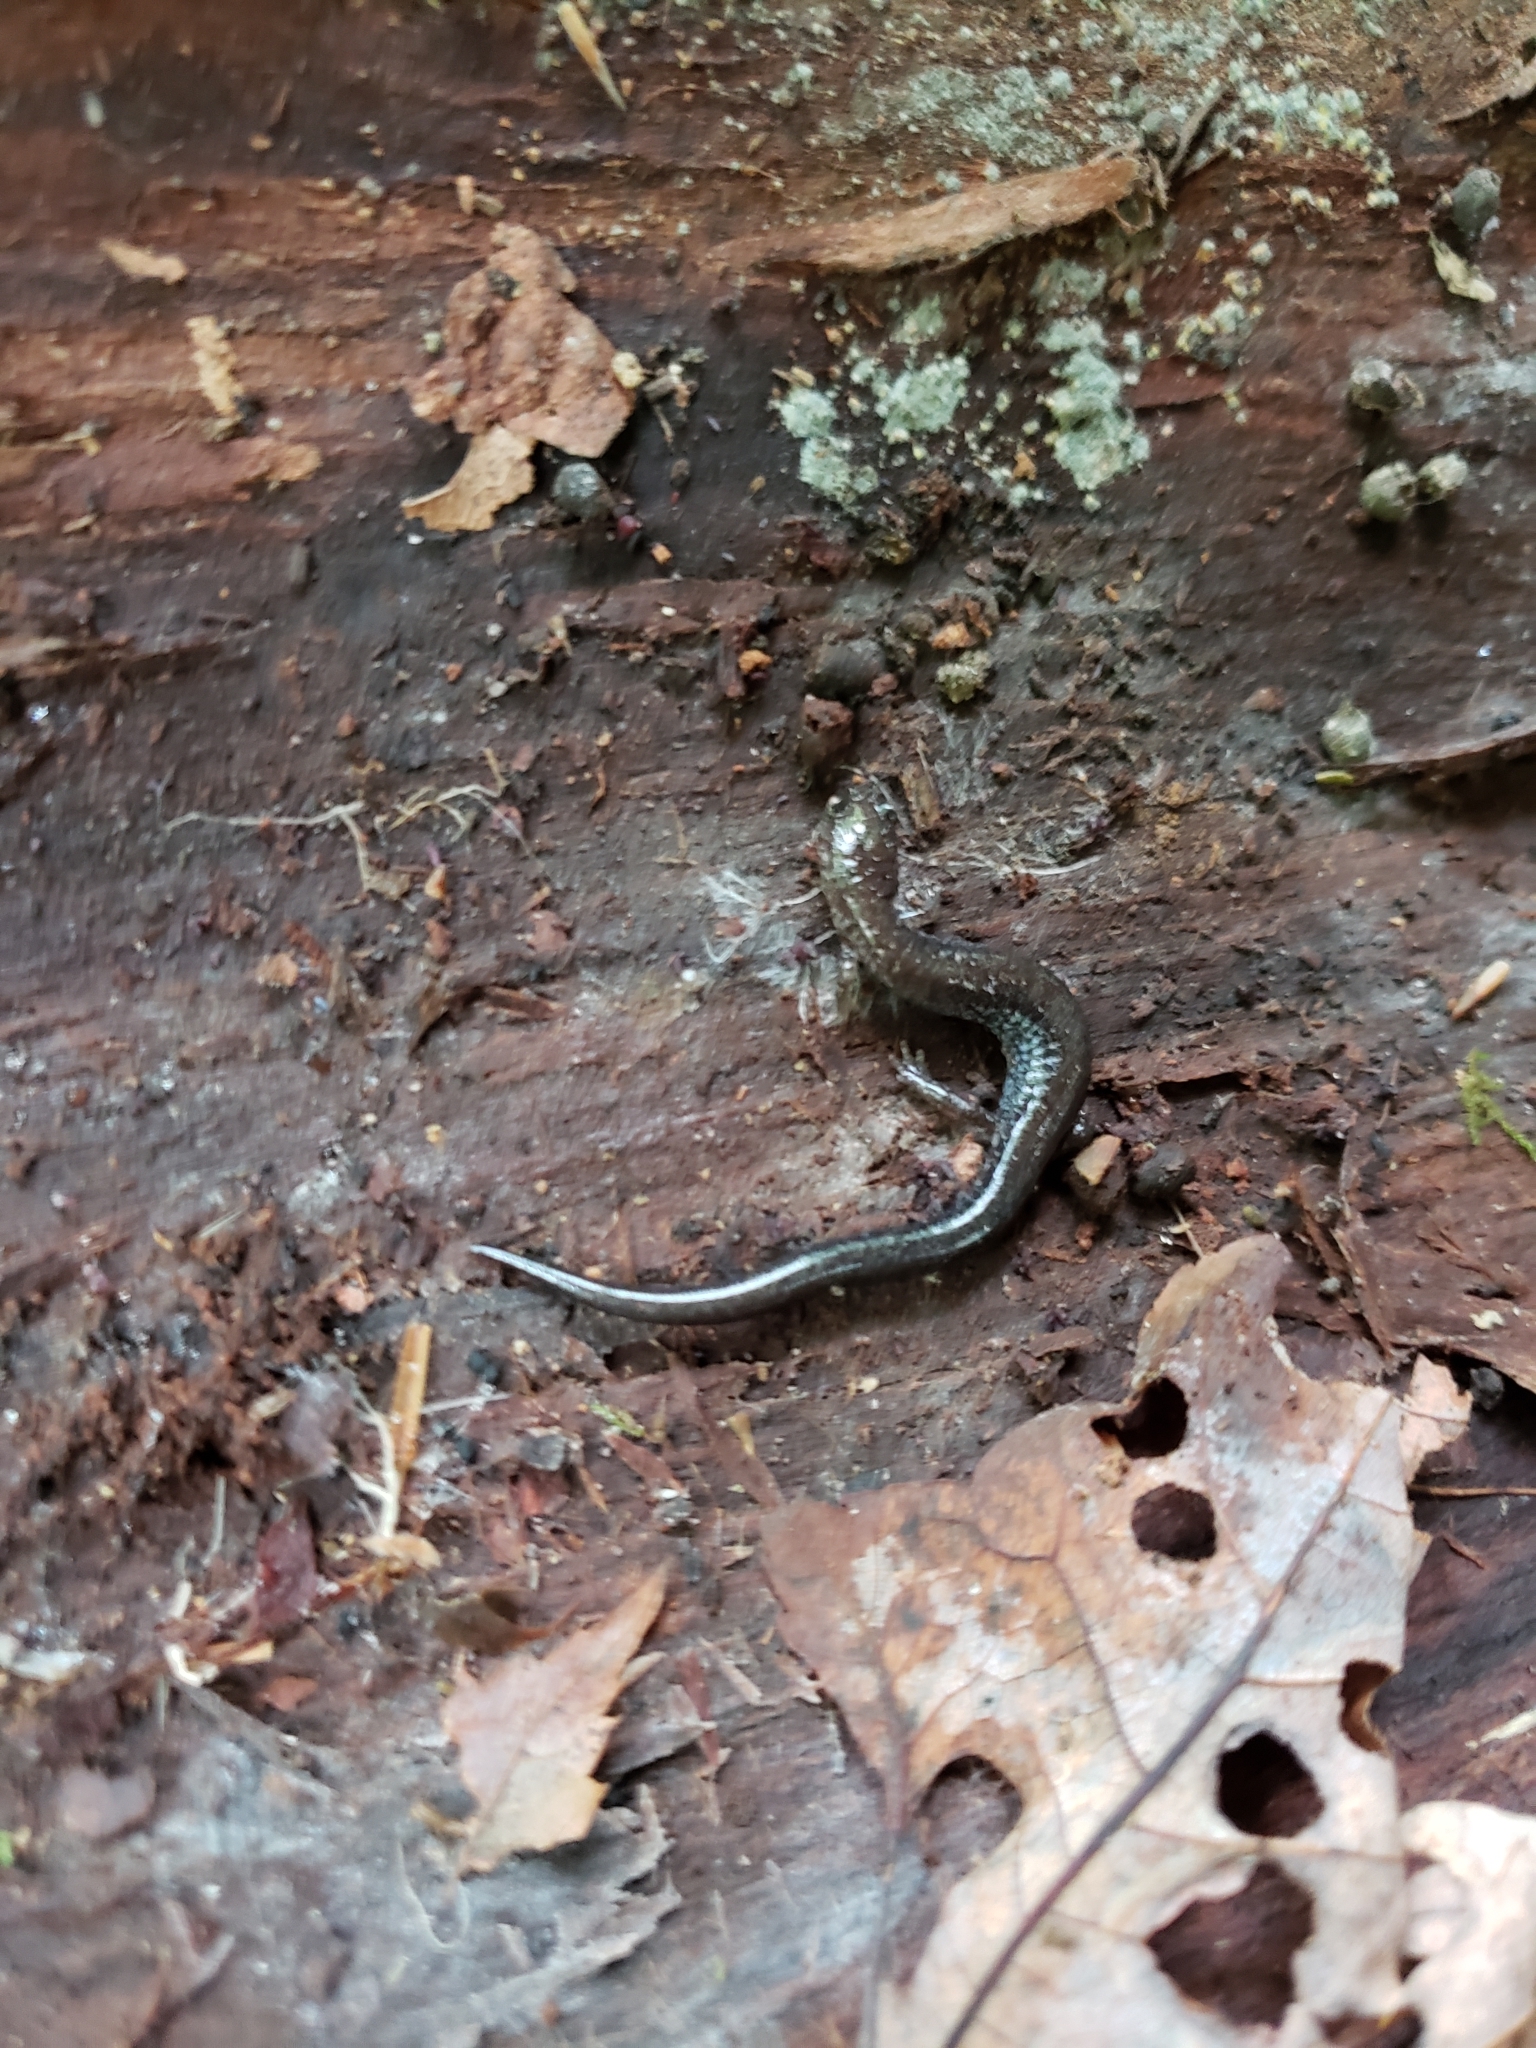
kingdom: Animalia
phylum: Chordata
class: Amphibia
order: Caudata
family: Plethodontidae
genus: Plethodon
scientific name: Plethodon cinereus
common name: Redback salamander
